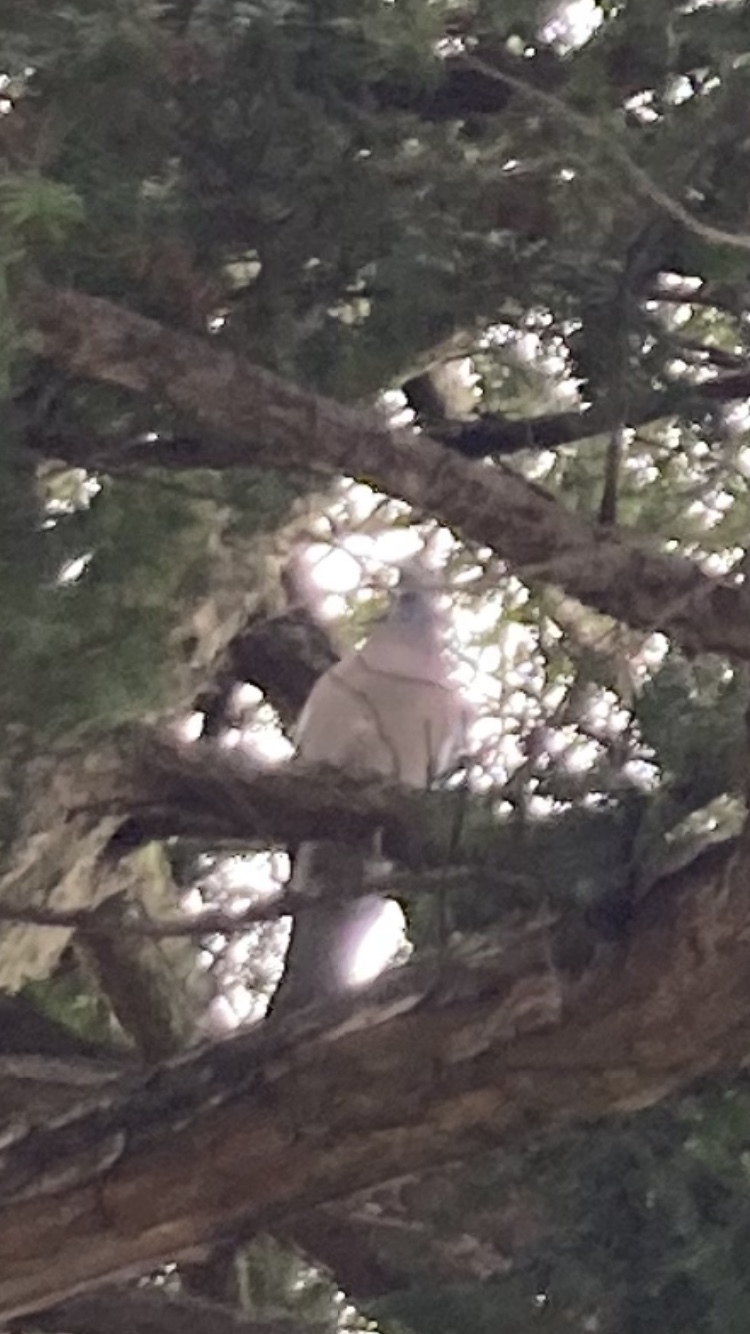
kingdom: Animalia
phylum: Chordata
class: Aves
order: Columbiformes
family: Columbidae
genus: Columba
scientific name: Columba palumbus
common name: Common wood pigeon
